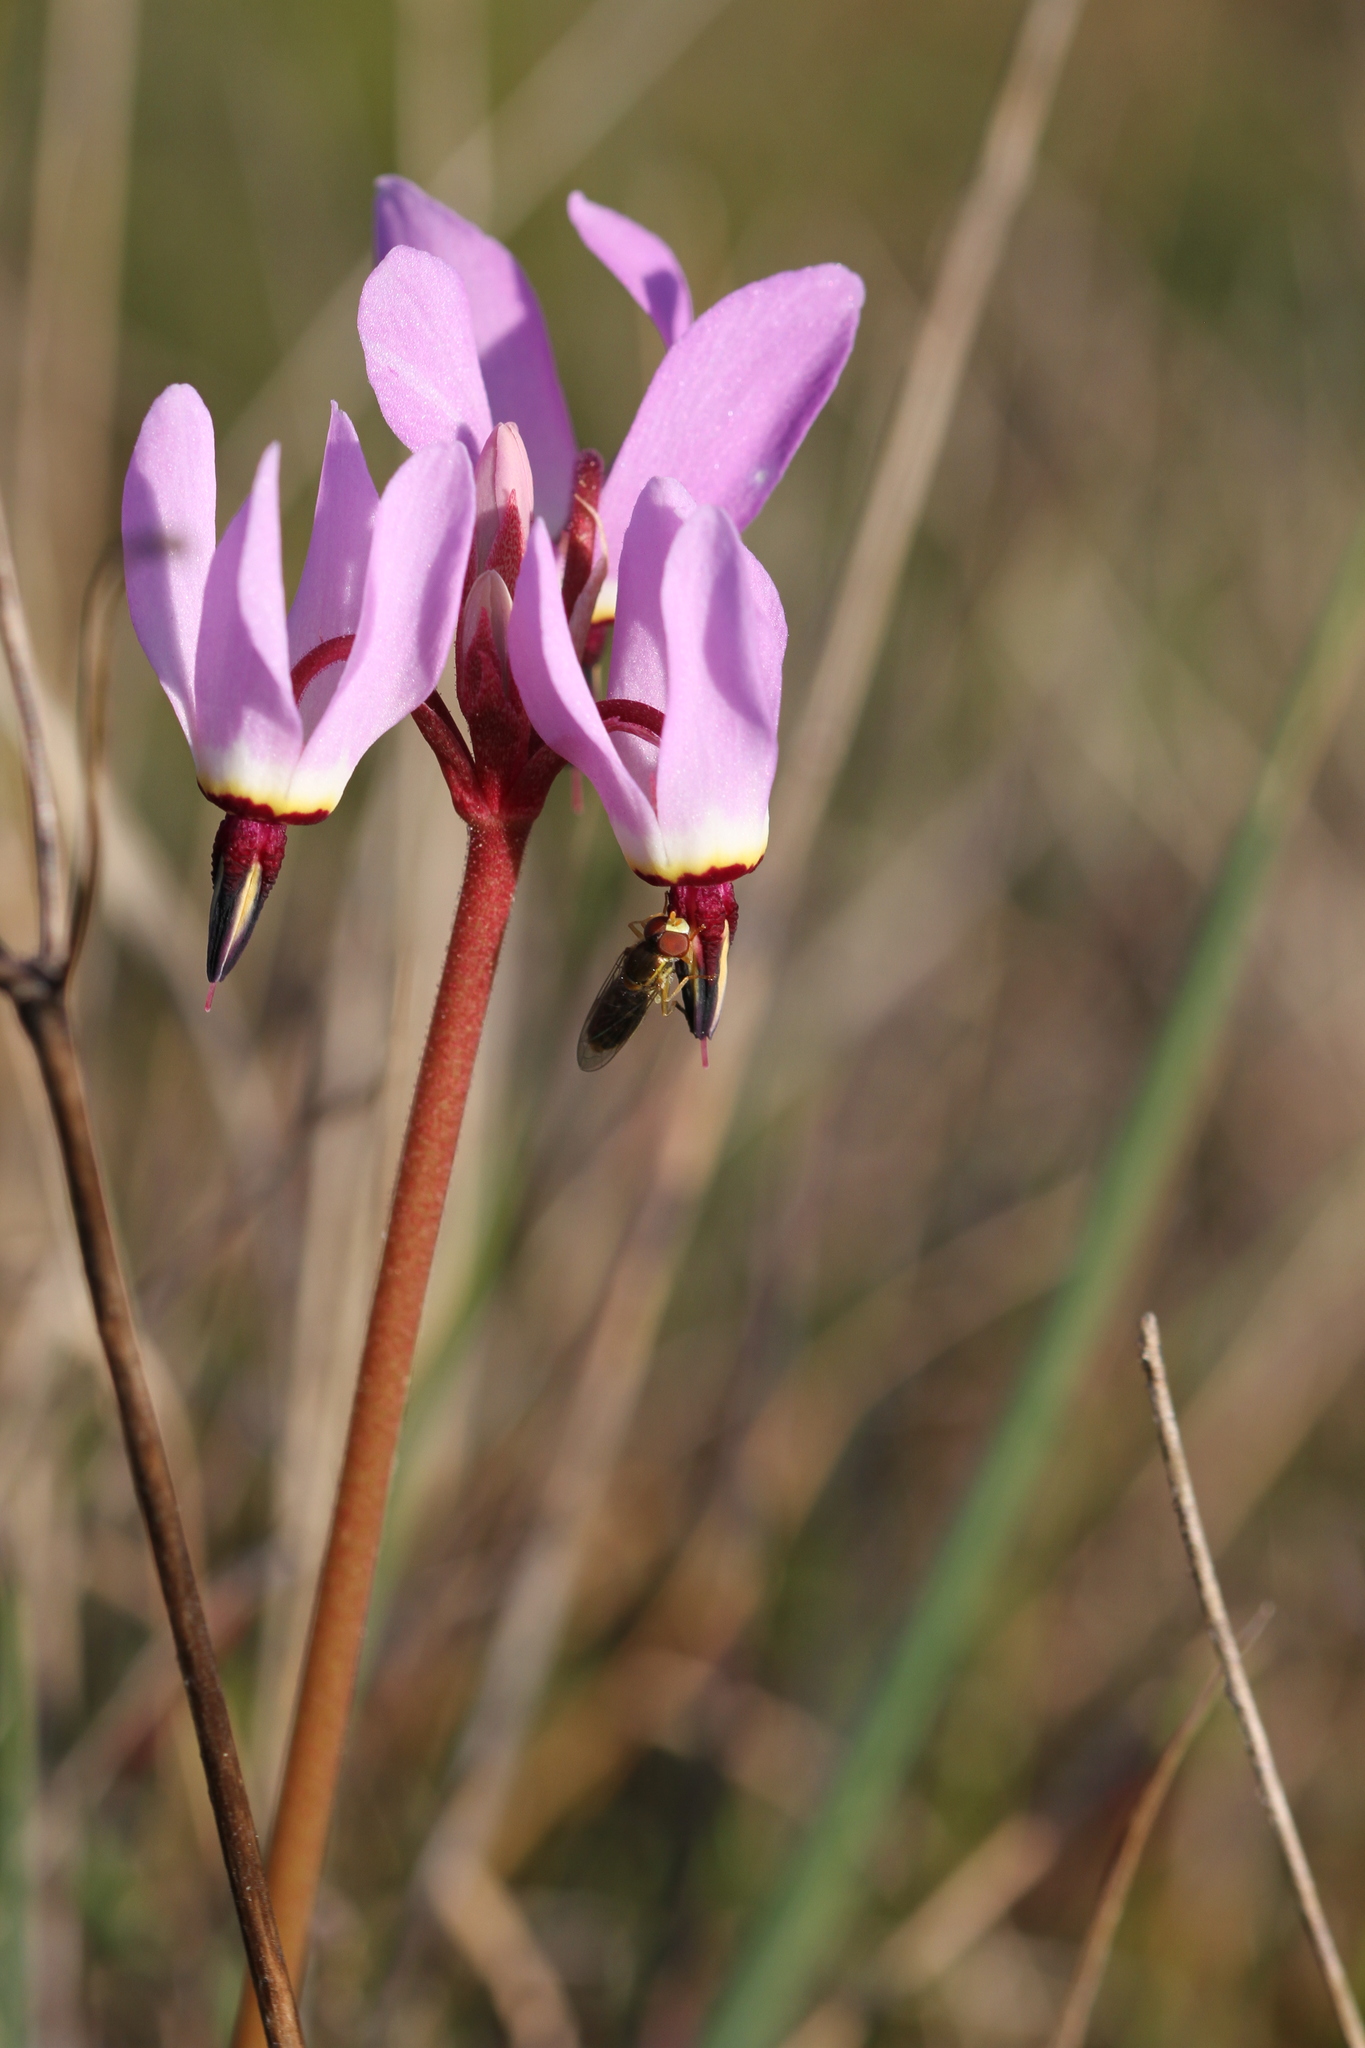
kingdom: Animalia
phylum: Arthropoda
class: Insecta
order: Diptera
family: Syrphidae
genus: Toxomerus
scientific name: Toxomerus marginatus
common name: Syrphid fly
